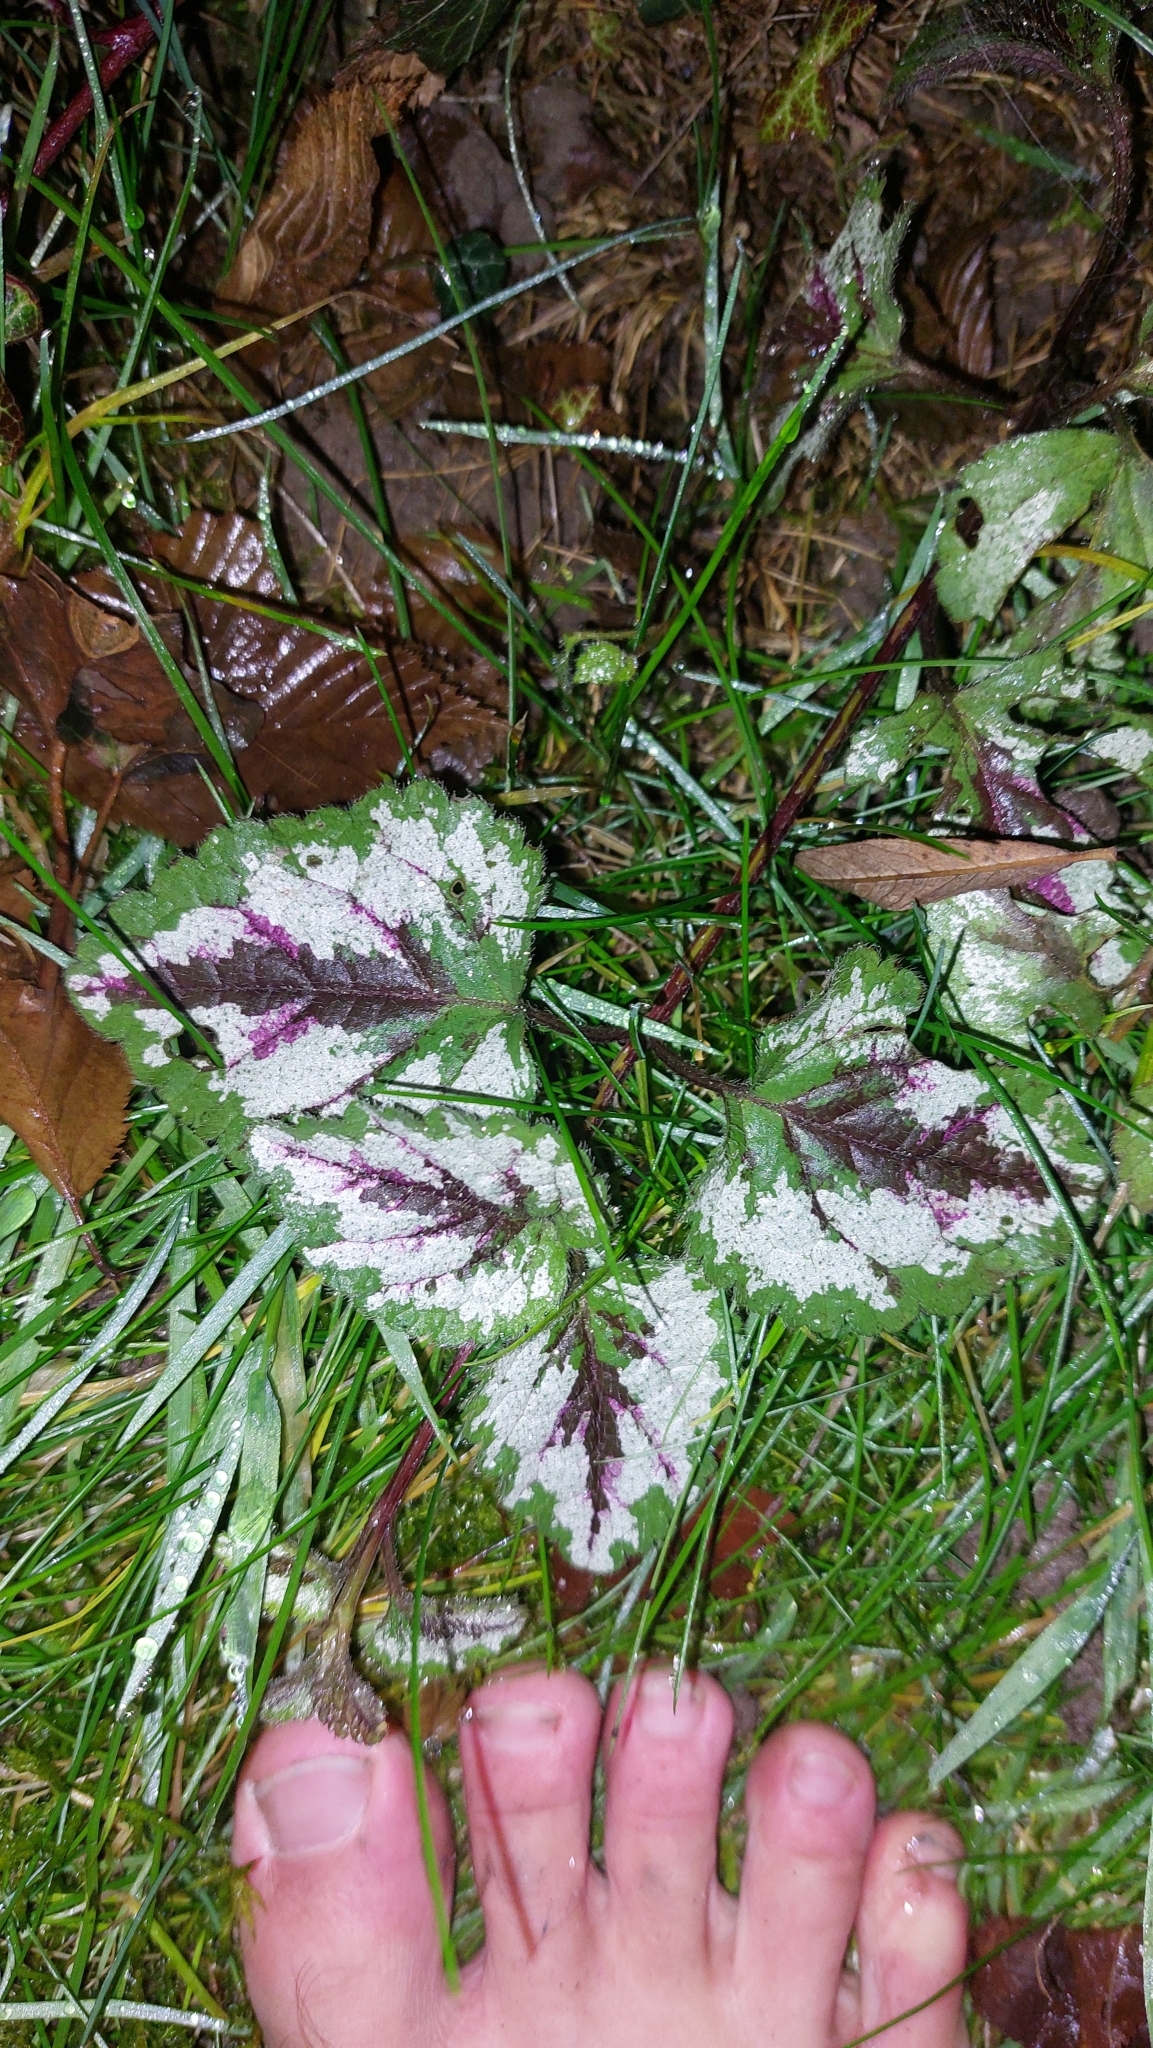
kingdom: Plantae
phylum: Tracheophyta
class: Magnoliopsida
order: Lamiales
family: Lamiaceae
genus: Lamium
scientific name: Lamium galeobdolon
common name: Yellow archangel
